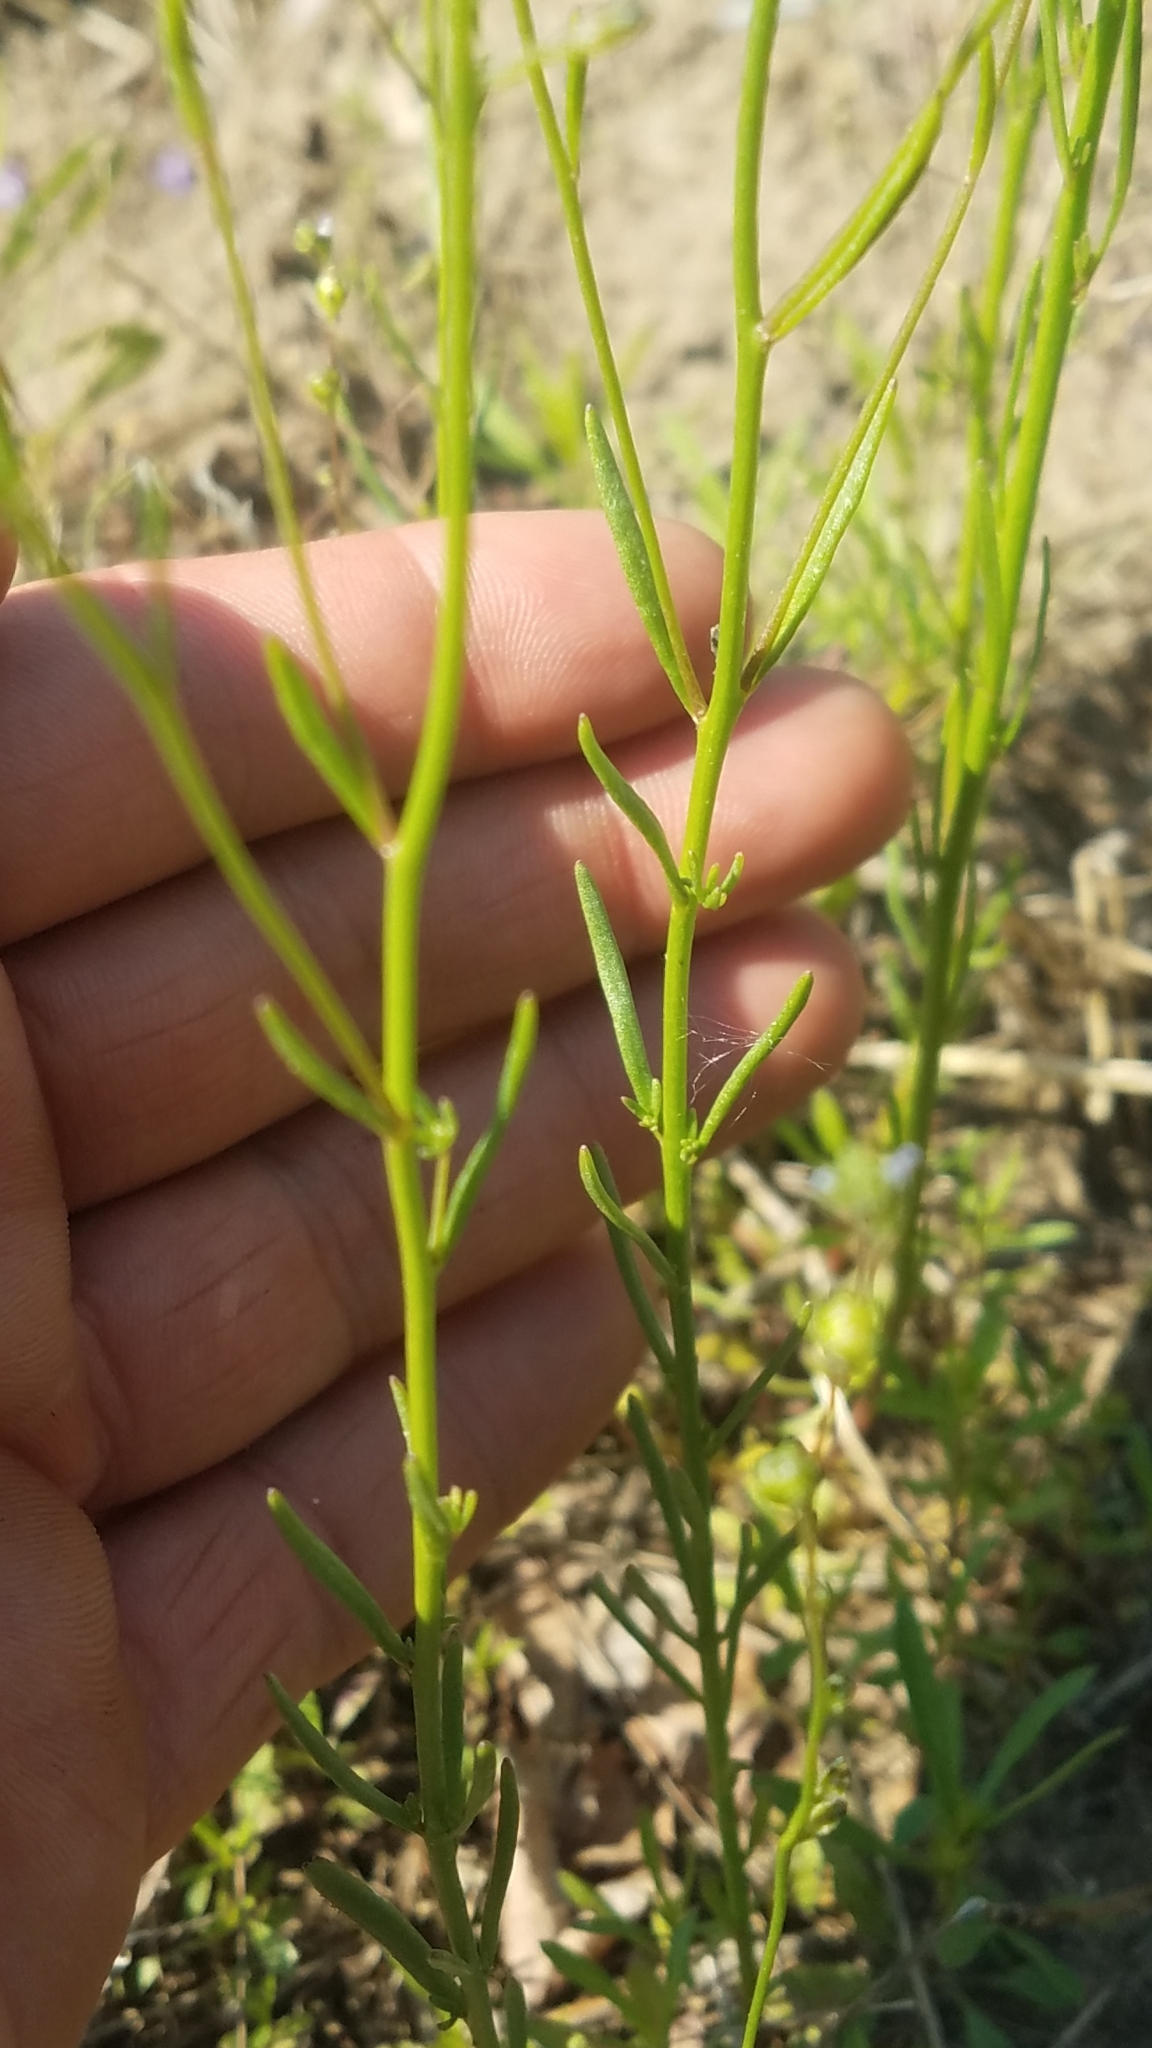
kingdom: Plantae
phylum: Tracheophyta
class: Magnoliopsida
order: Lamiales
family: Plantaginaceae
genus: Nuttallanthus
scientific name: Nuttallanthus canadensis
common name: Blue toadflax
